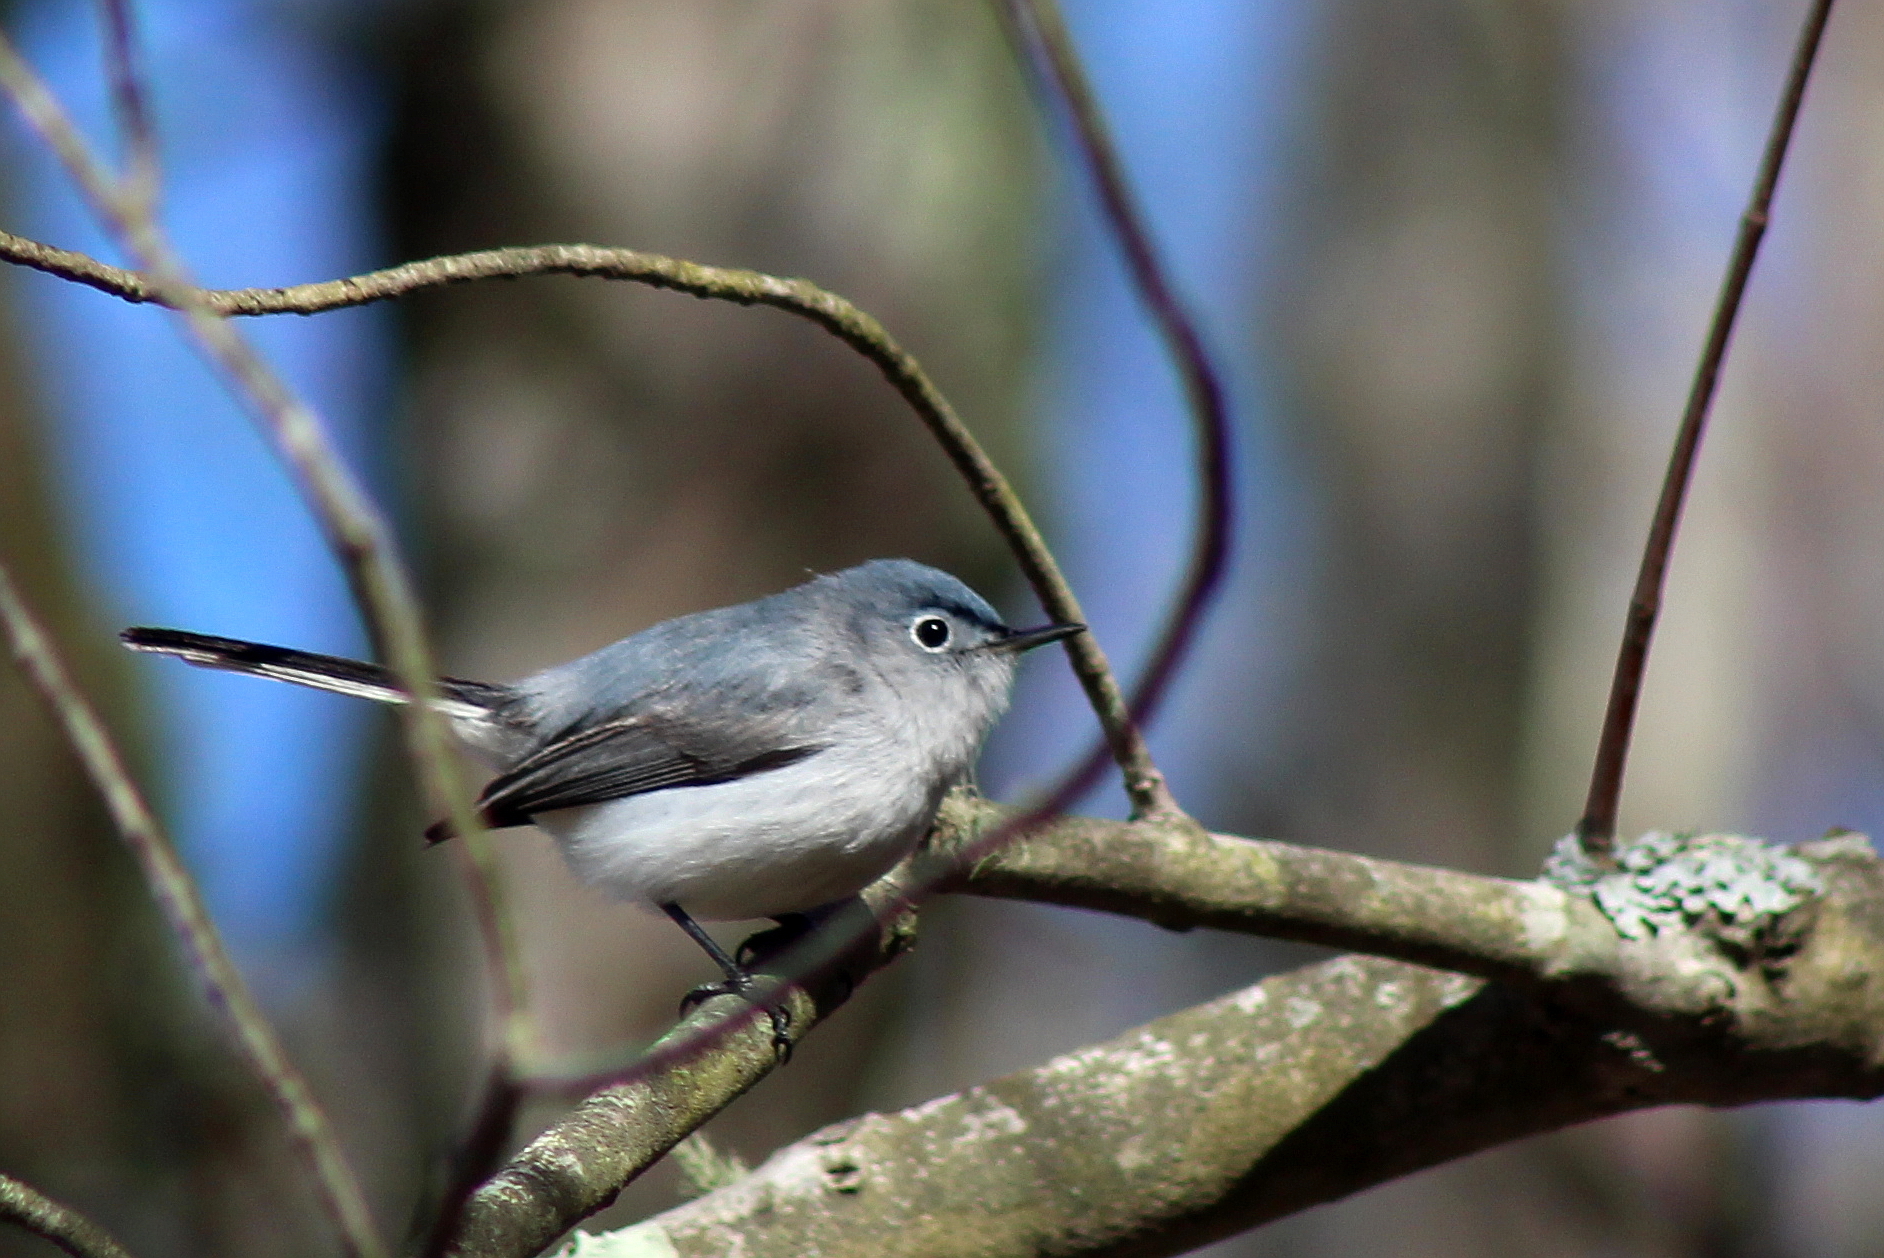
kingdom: Animalia
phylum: Chordata
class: Aves
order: Passeriformes
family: Polioptilidae
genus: Polioptila
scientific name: Polioptila caerulea
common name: Blue-gray gnatcatcher
